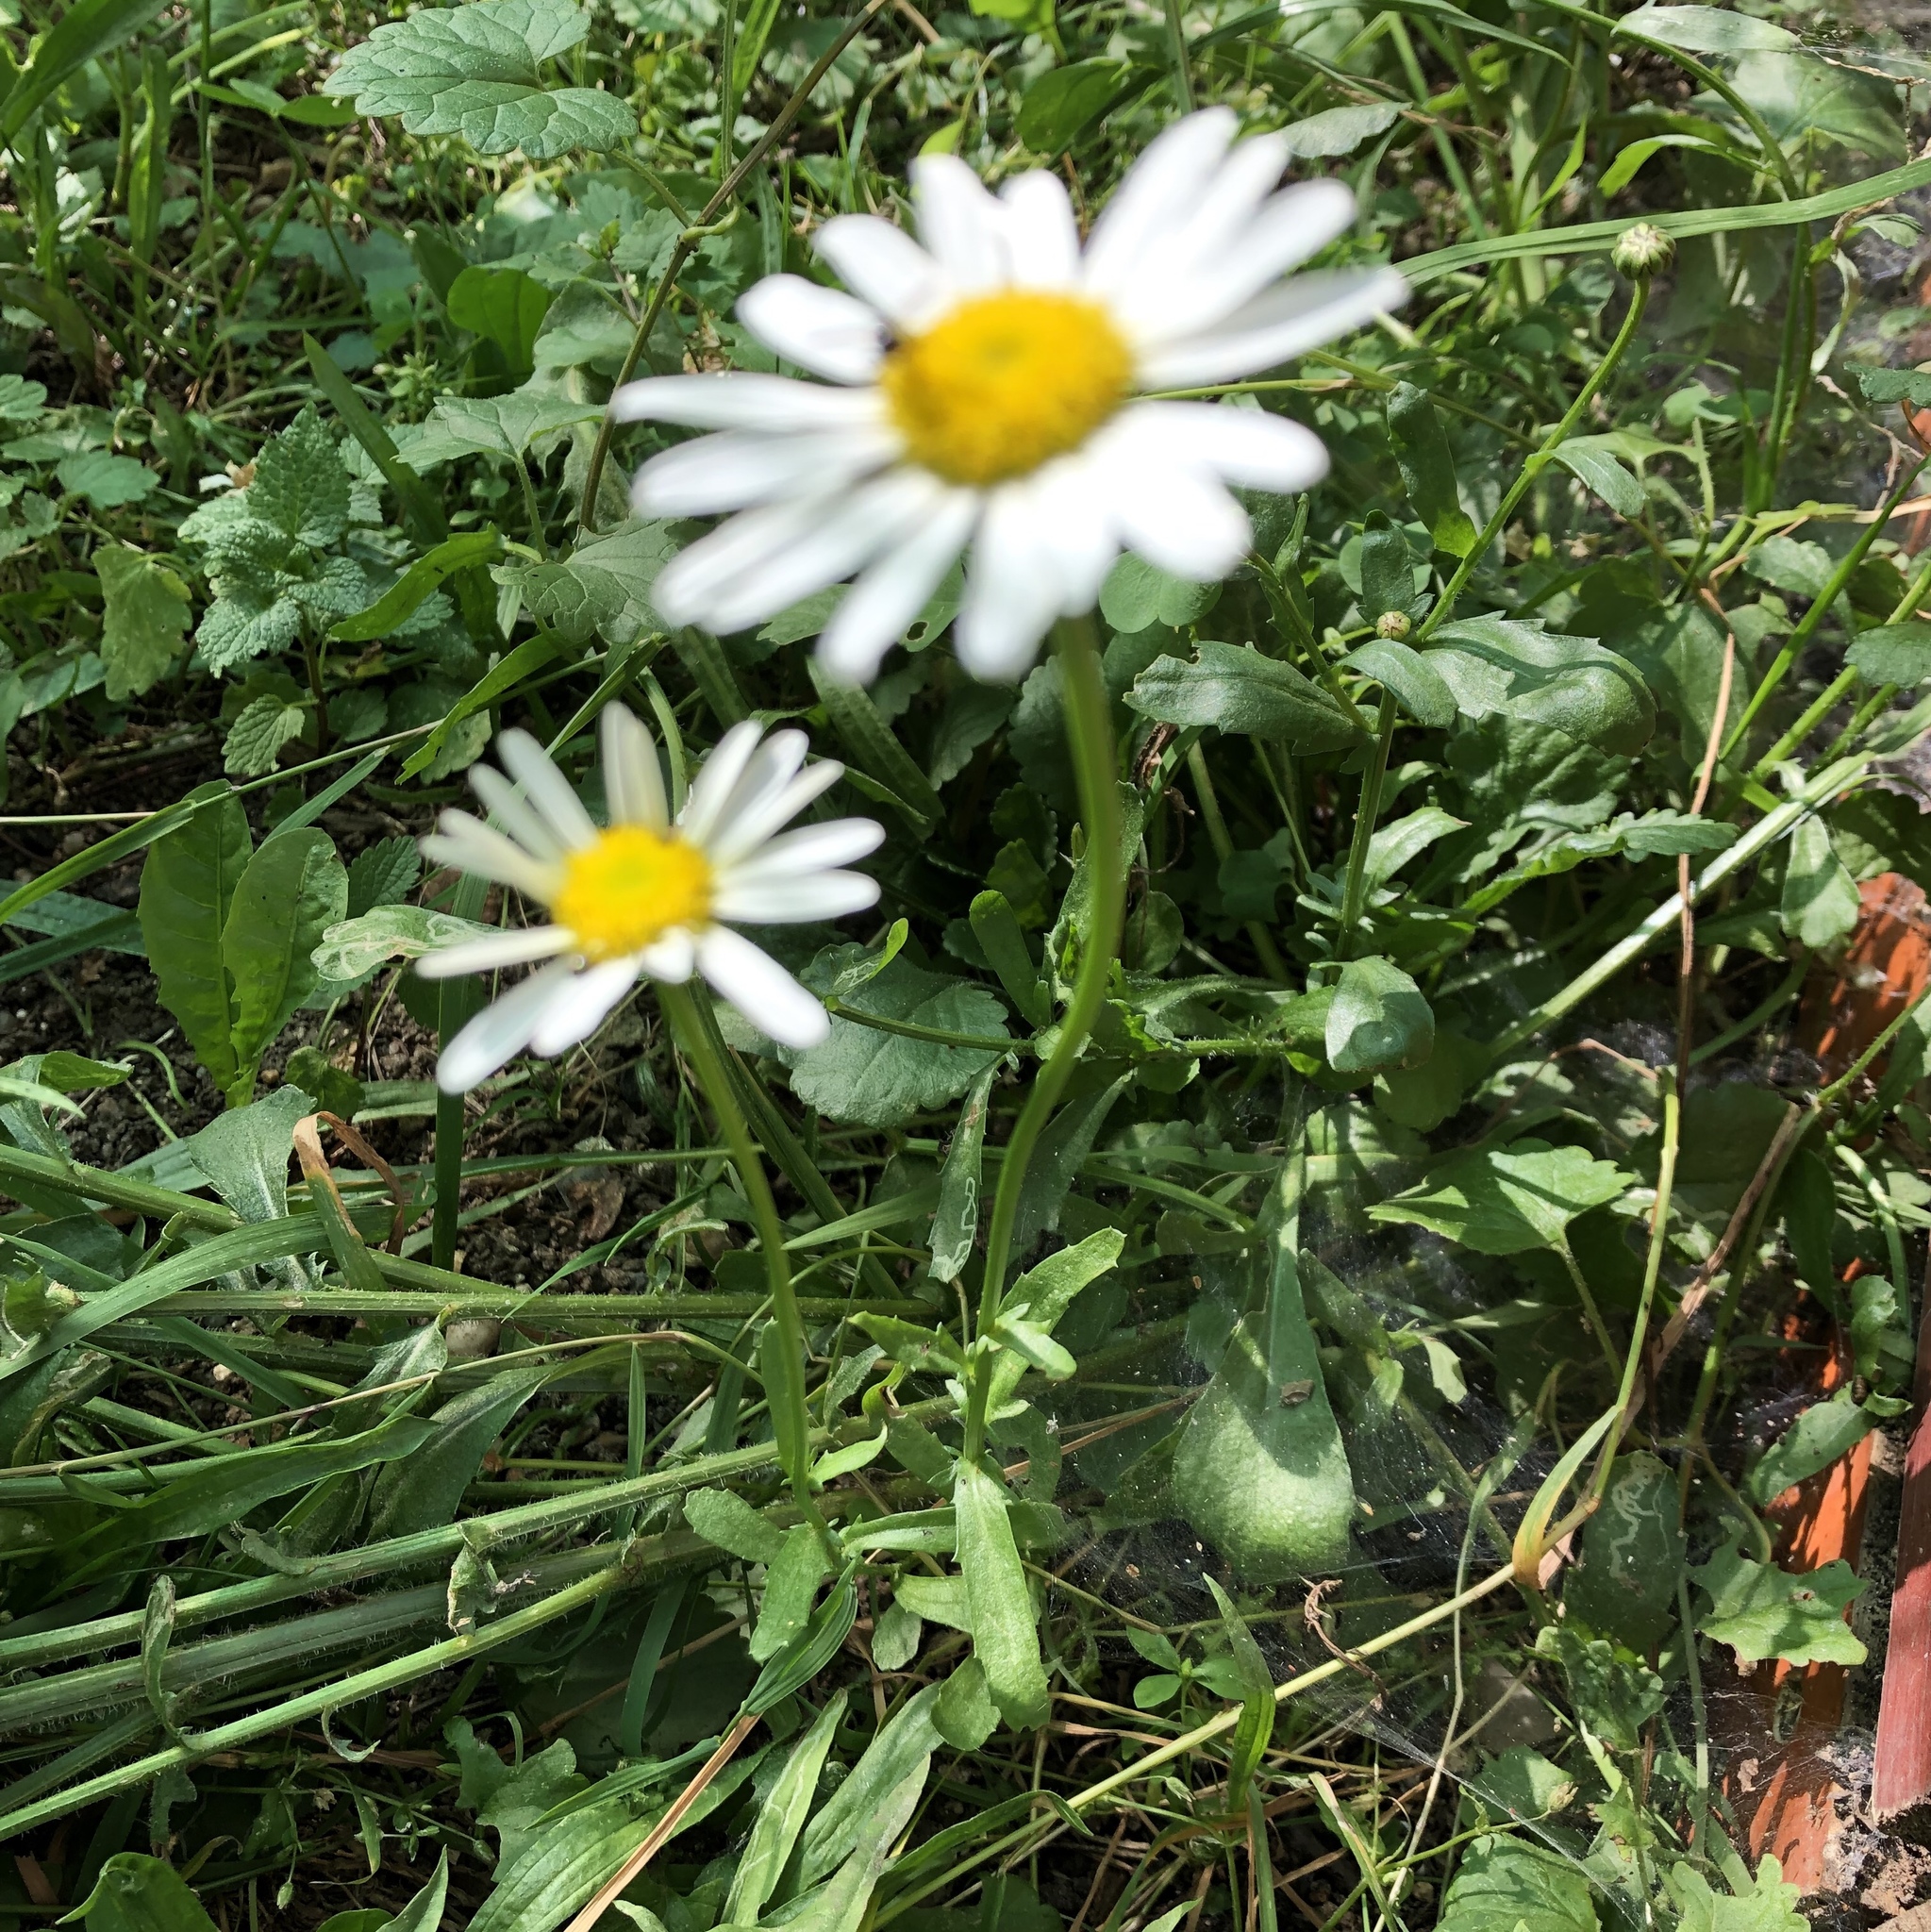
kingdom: Plantae
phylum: Tracheophyta
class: Magnoliopsida
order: Asterales
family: Asteraceae
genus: Leucanthemum
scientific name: Leucanthemum vulgare
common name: Oxeye daisy
